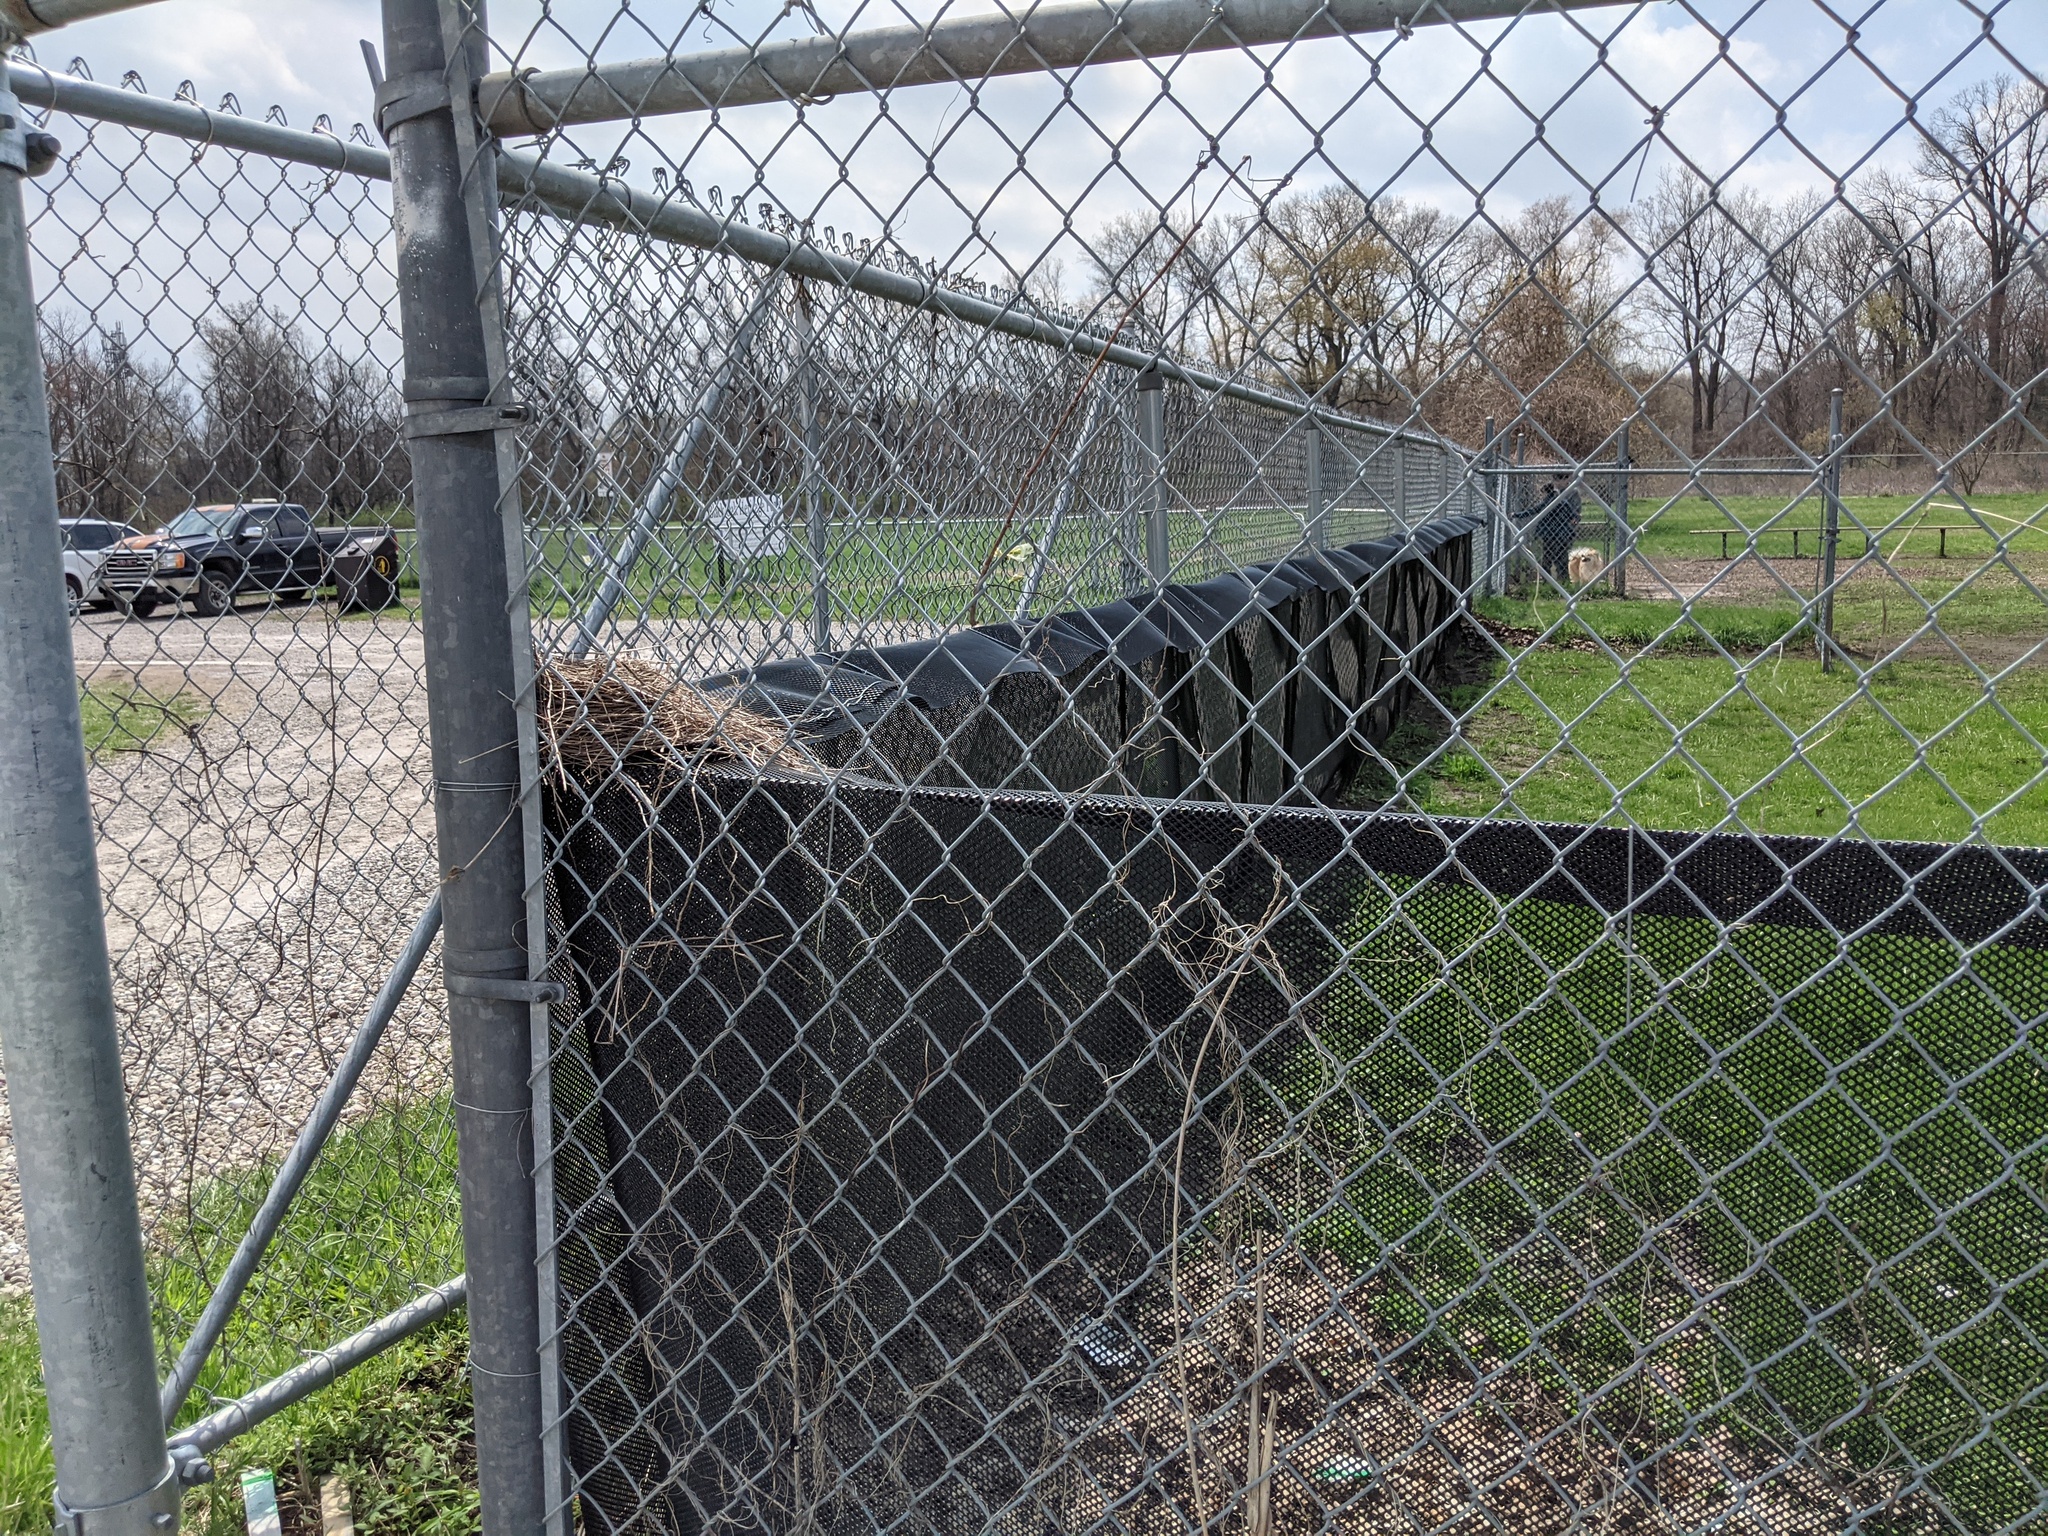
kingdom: Animalia
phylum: Chordata
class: Aves
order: Passeriformes
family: Turdidae
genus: Turdus
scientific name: Turdus migratorius
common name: American robin
